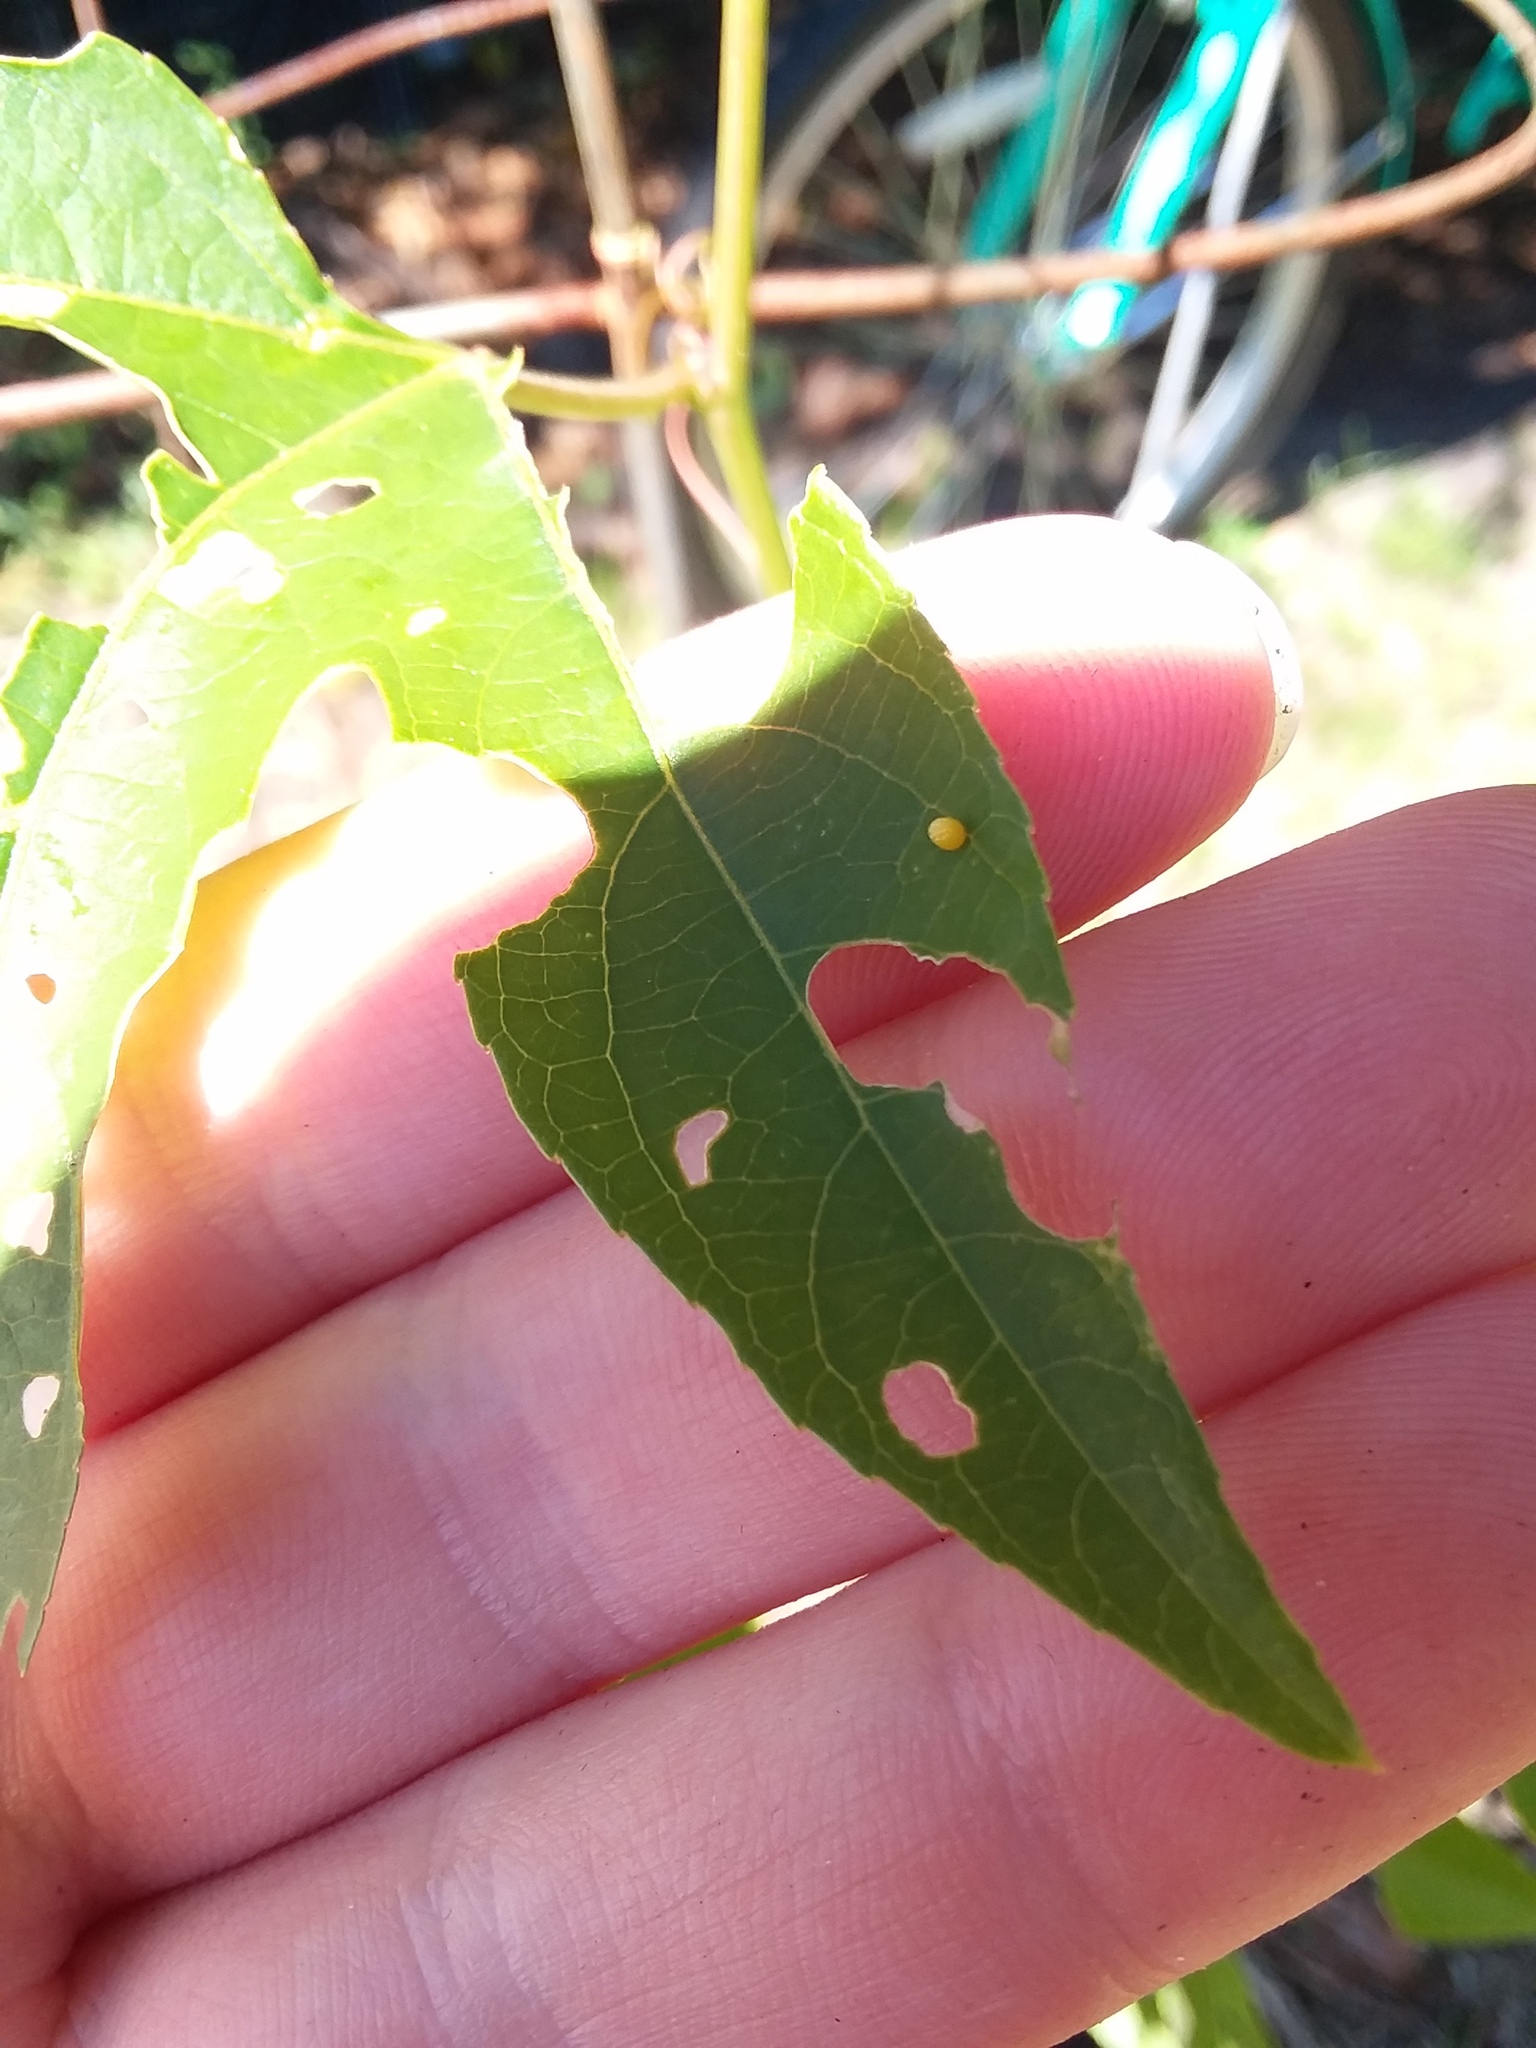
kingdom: Animalia
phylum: Arthropoda
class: Insecta
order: Lepidoptera
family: Nymphalidae
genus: Dione
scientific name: Dione vanillae
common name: Gulf fritillary
